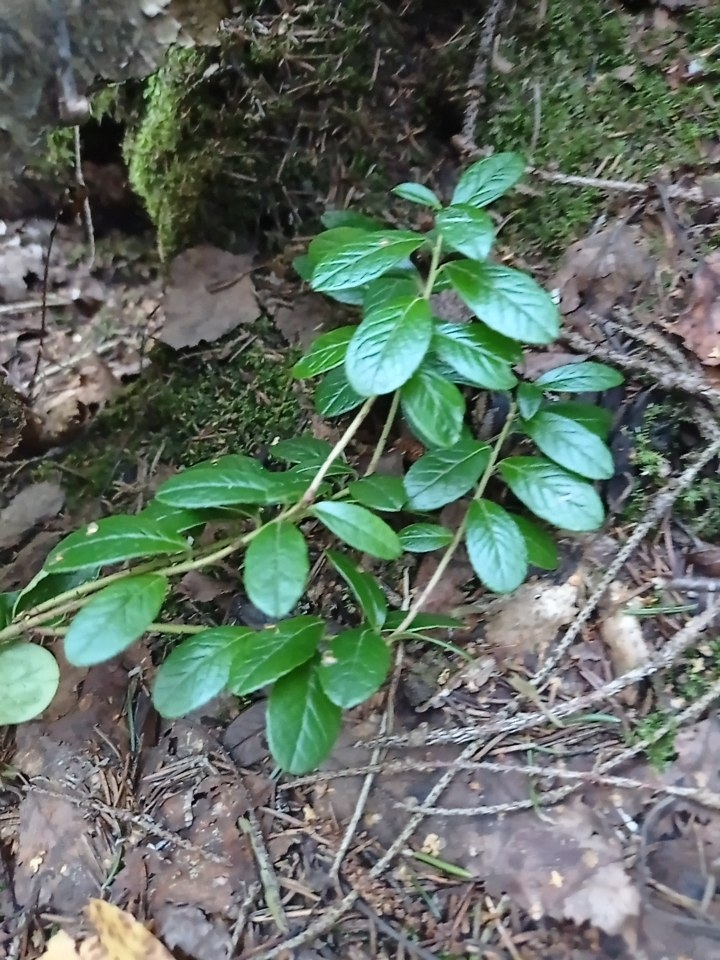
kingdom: Plantae
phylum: Tracheophyta
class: Magnoliopsida
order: Ericales
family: Ericaceae
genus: Vaccinium
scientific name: Vaccinium vitis-idaea
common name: Cowberry
